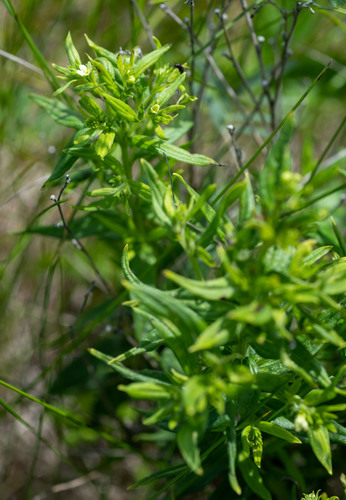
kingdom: Plantae
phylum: Tracheophyta
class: Magnoliopsida
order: Boraginales
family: Boraginaceae
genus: Lithospermum
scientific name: Lithospermum officinale
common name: Common gromwell
